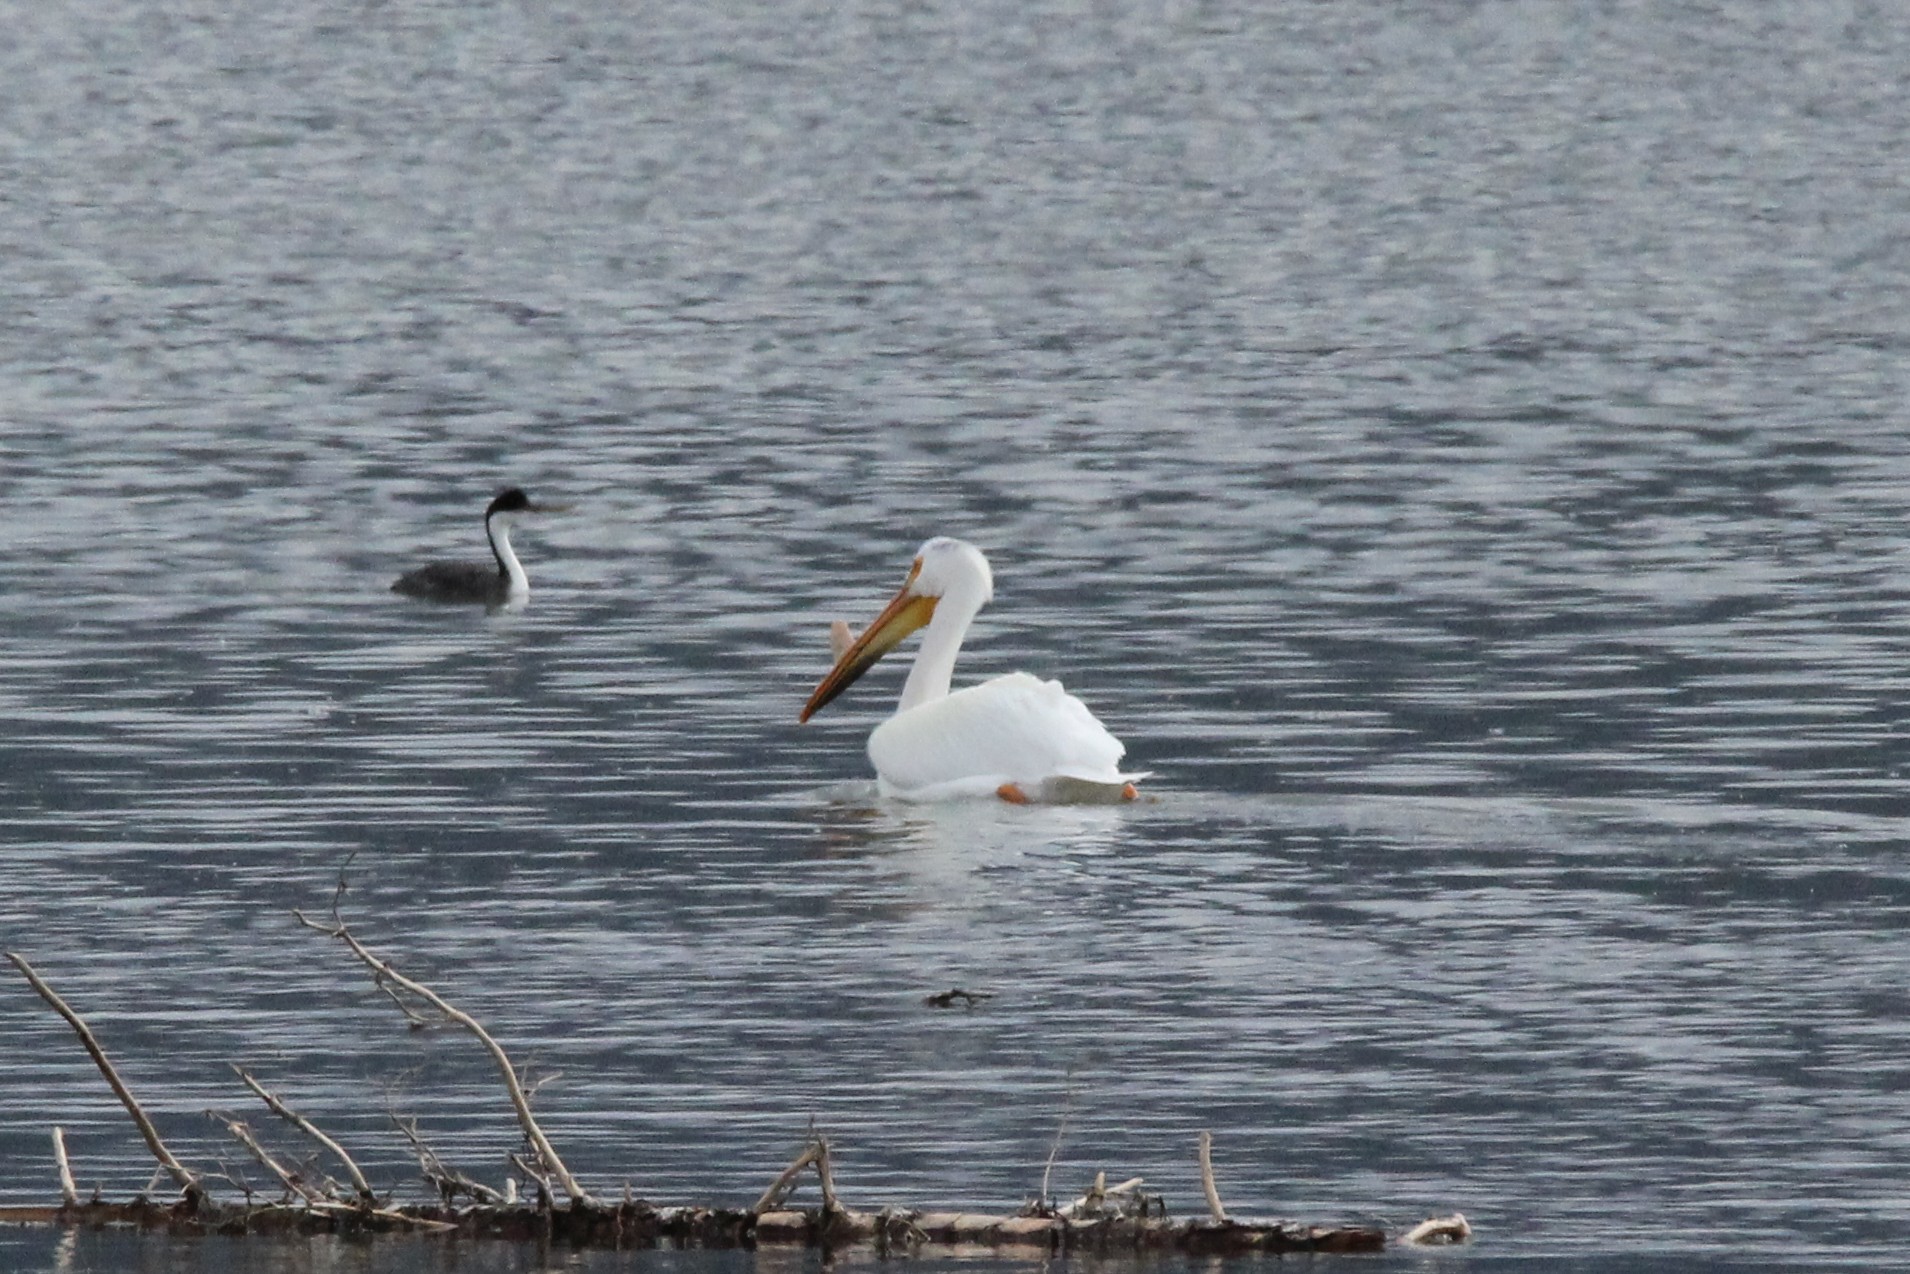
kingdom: Animalia
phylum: Chordata
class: Aves
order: Pelecaniformes
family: Pelecanidae
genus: Pelecanus
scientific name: Pelecanus erythrorhynchos
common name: American white pelican
